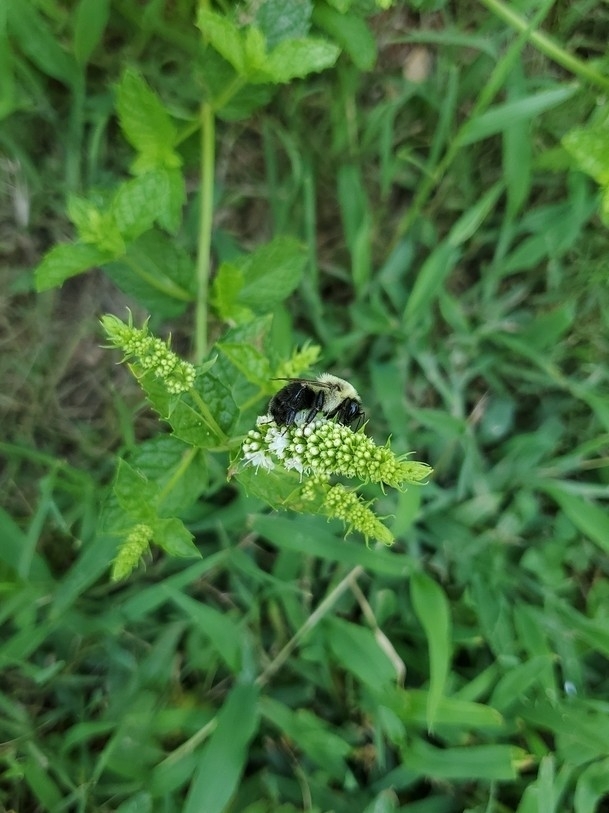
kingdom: Animalia
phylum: Arthropoda
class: Insecta
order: Hymenoptera
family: Apidae
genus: Bombus
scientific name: Bombus impatiens
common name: Common eastern bumble bee
